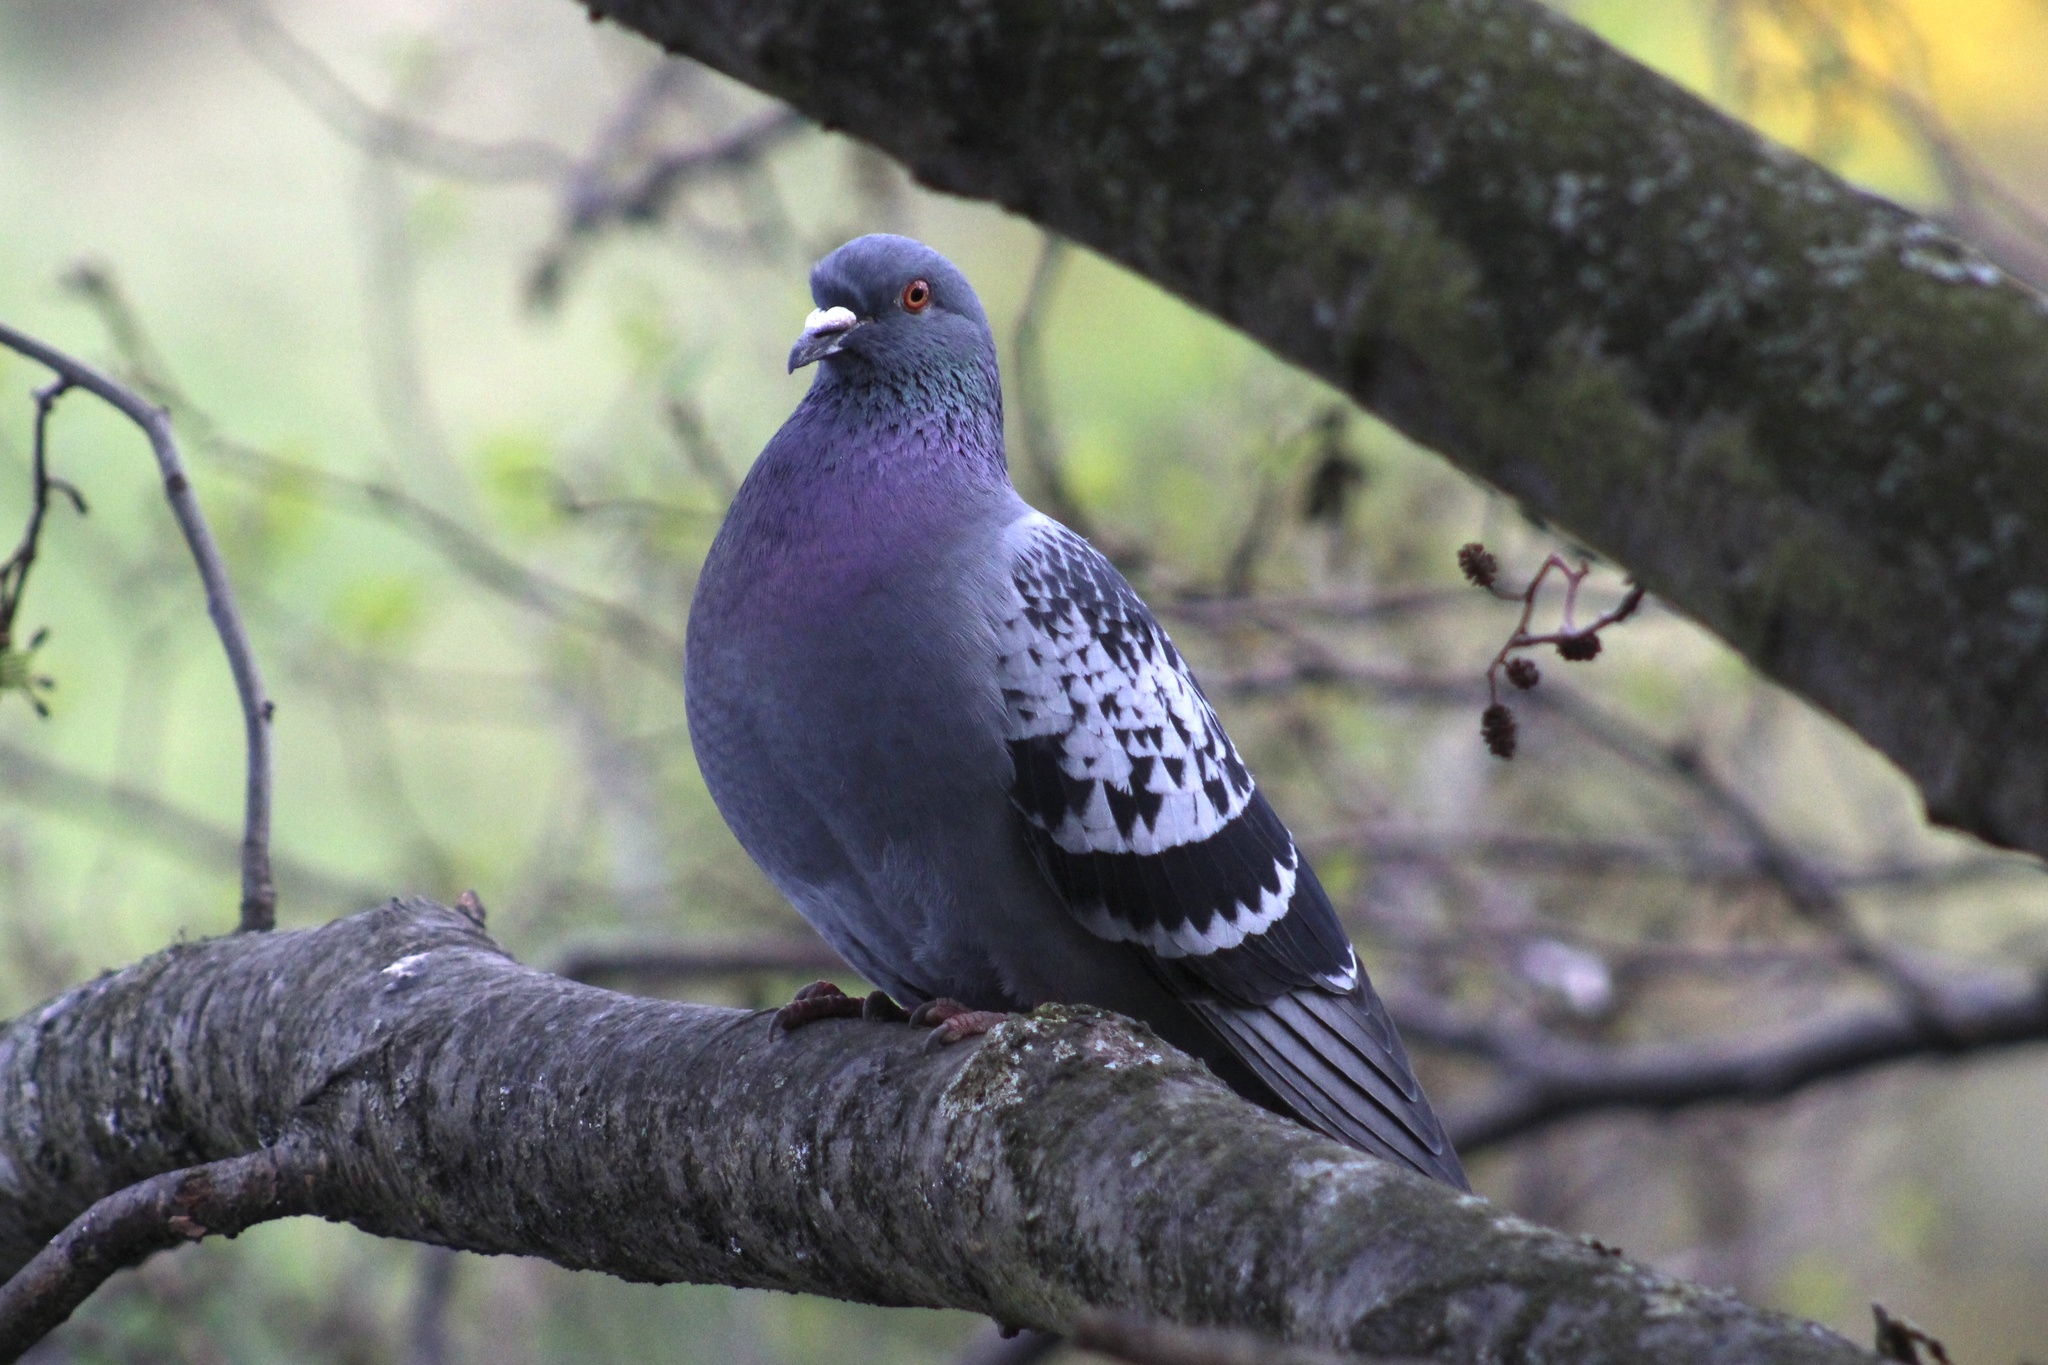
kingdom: Animalia
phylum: Chordata
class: Aves
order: Columbiformes
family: Columbidae
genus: Columba
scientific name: Columba livia
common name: Rock pigeon
